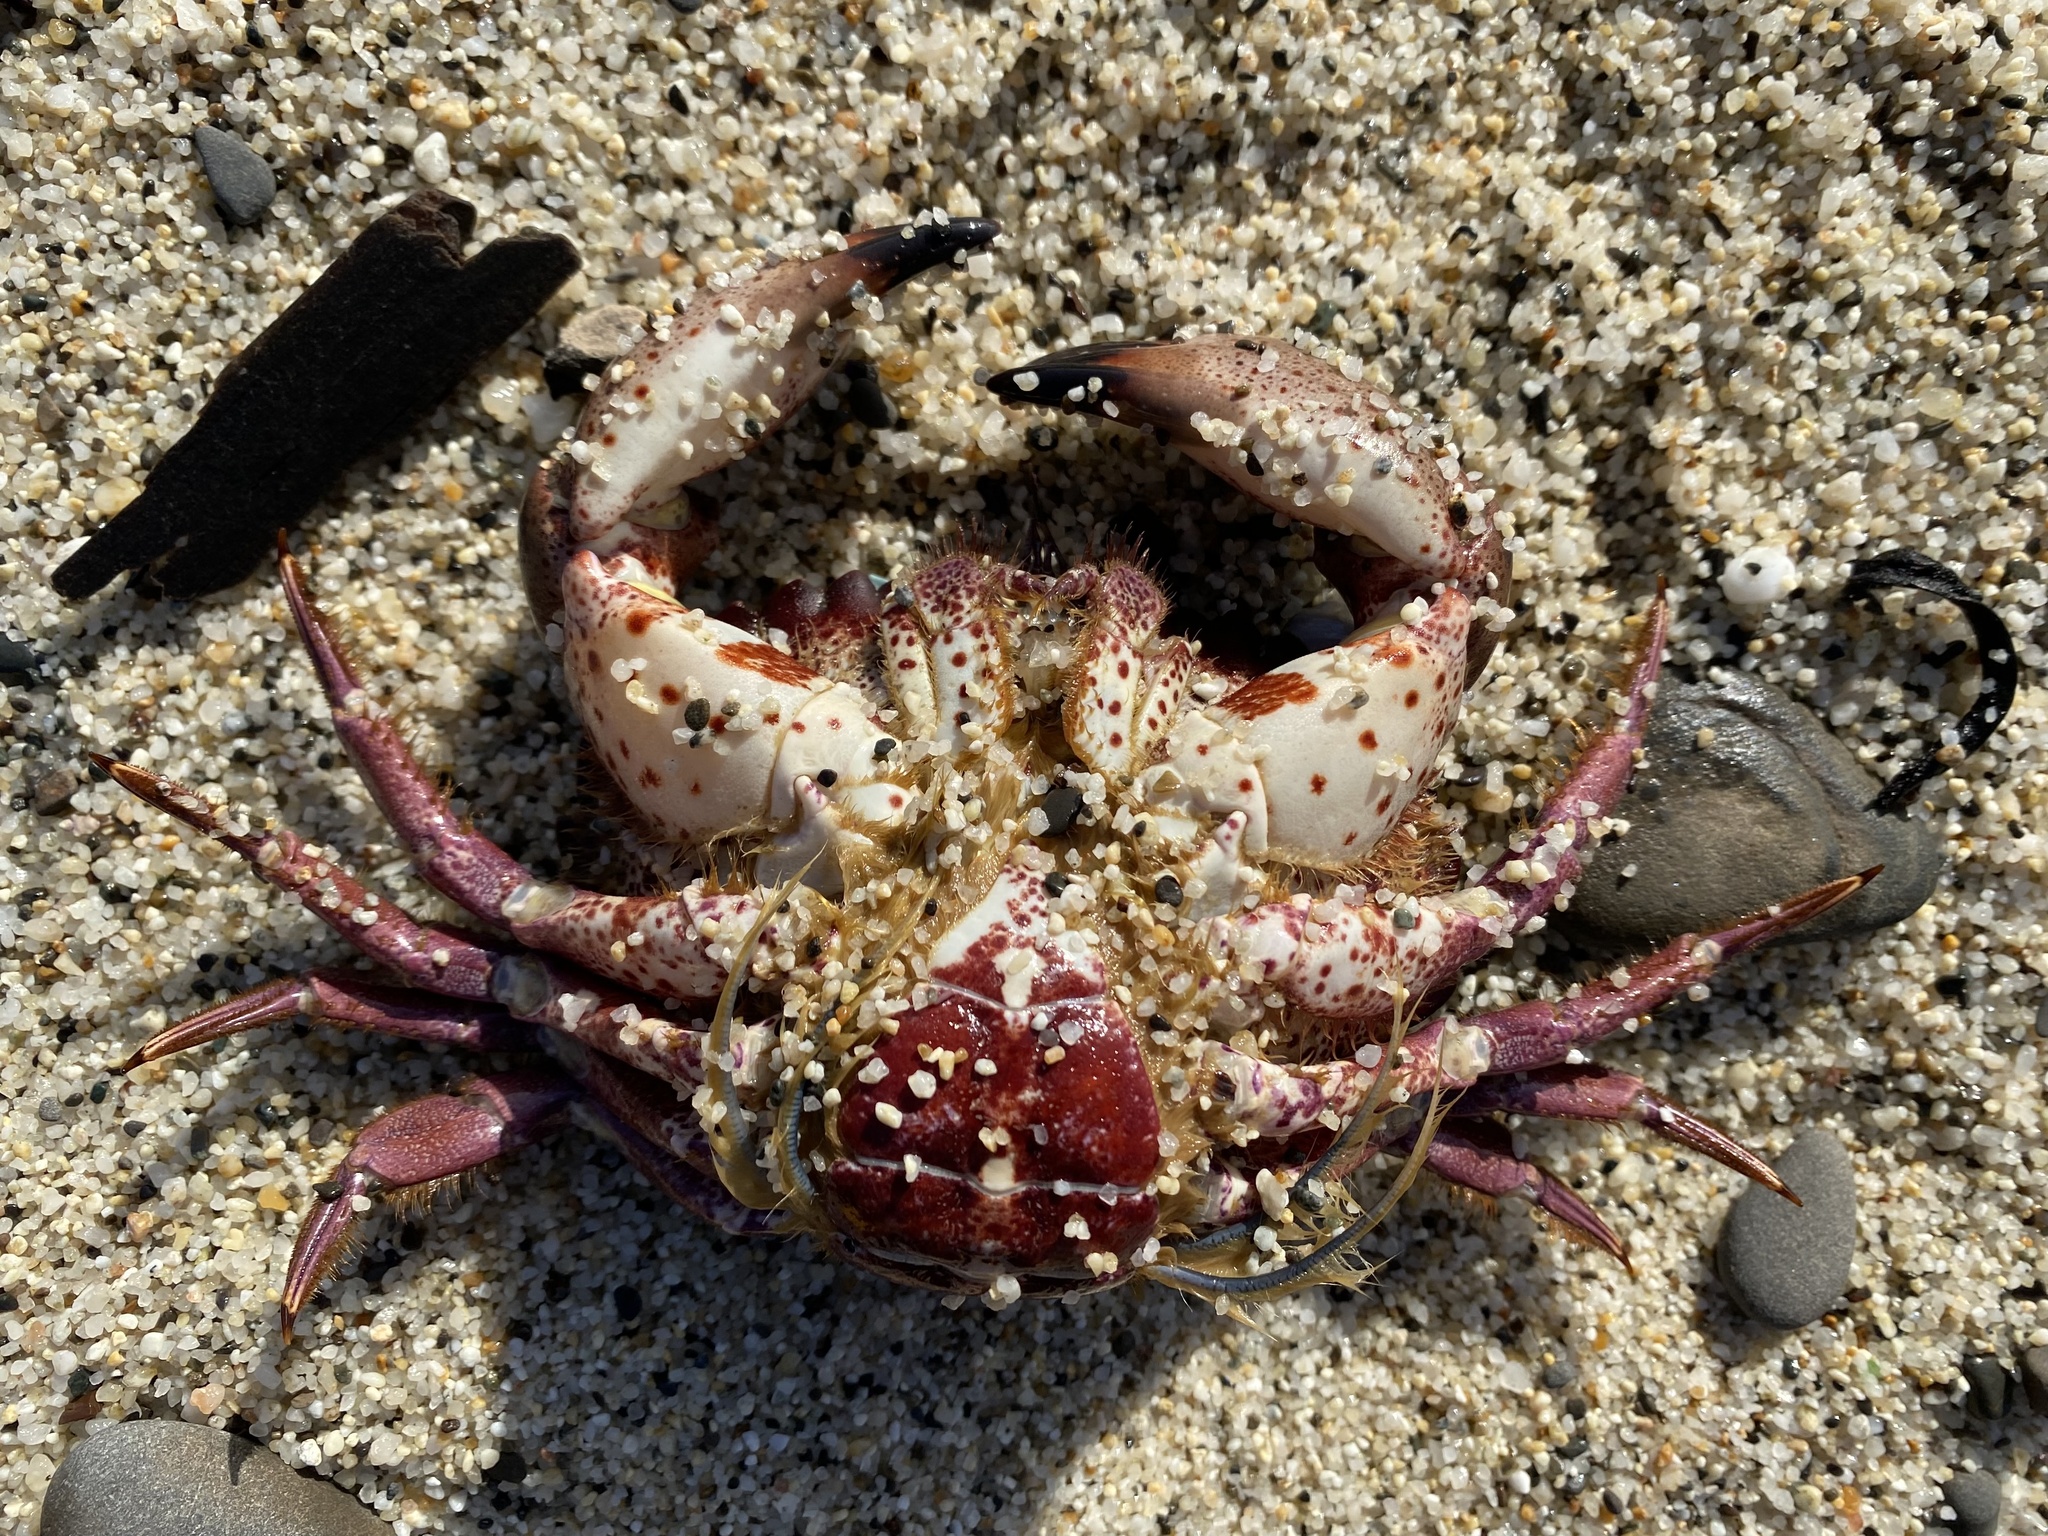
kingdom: Animalia
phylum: Arthropoda
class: Malacostraca
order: Decapoda
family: Cancridae
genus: Romaleon
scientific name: Romaleon antennarium
